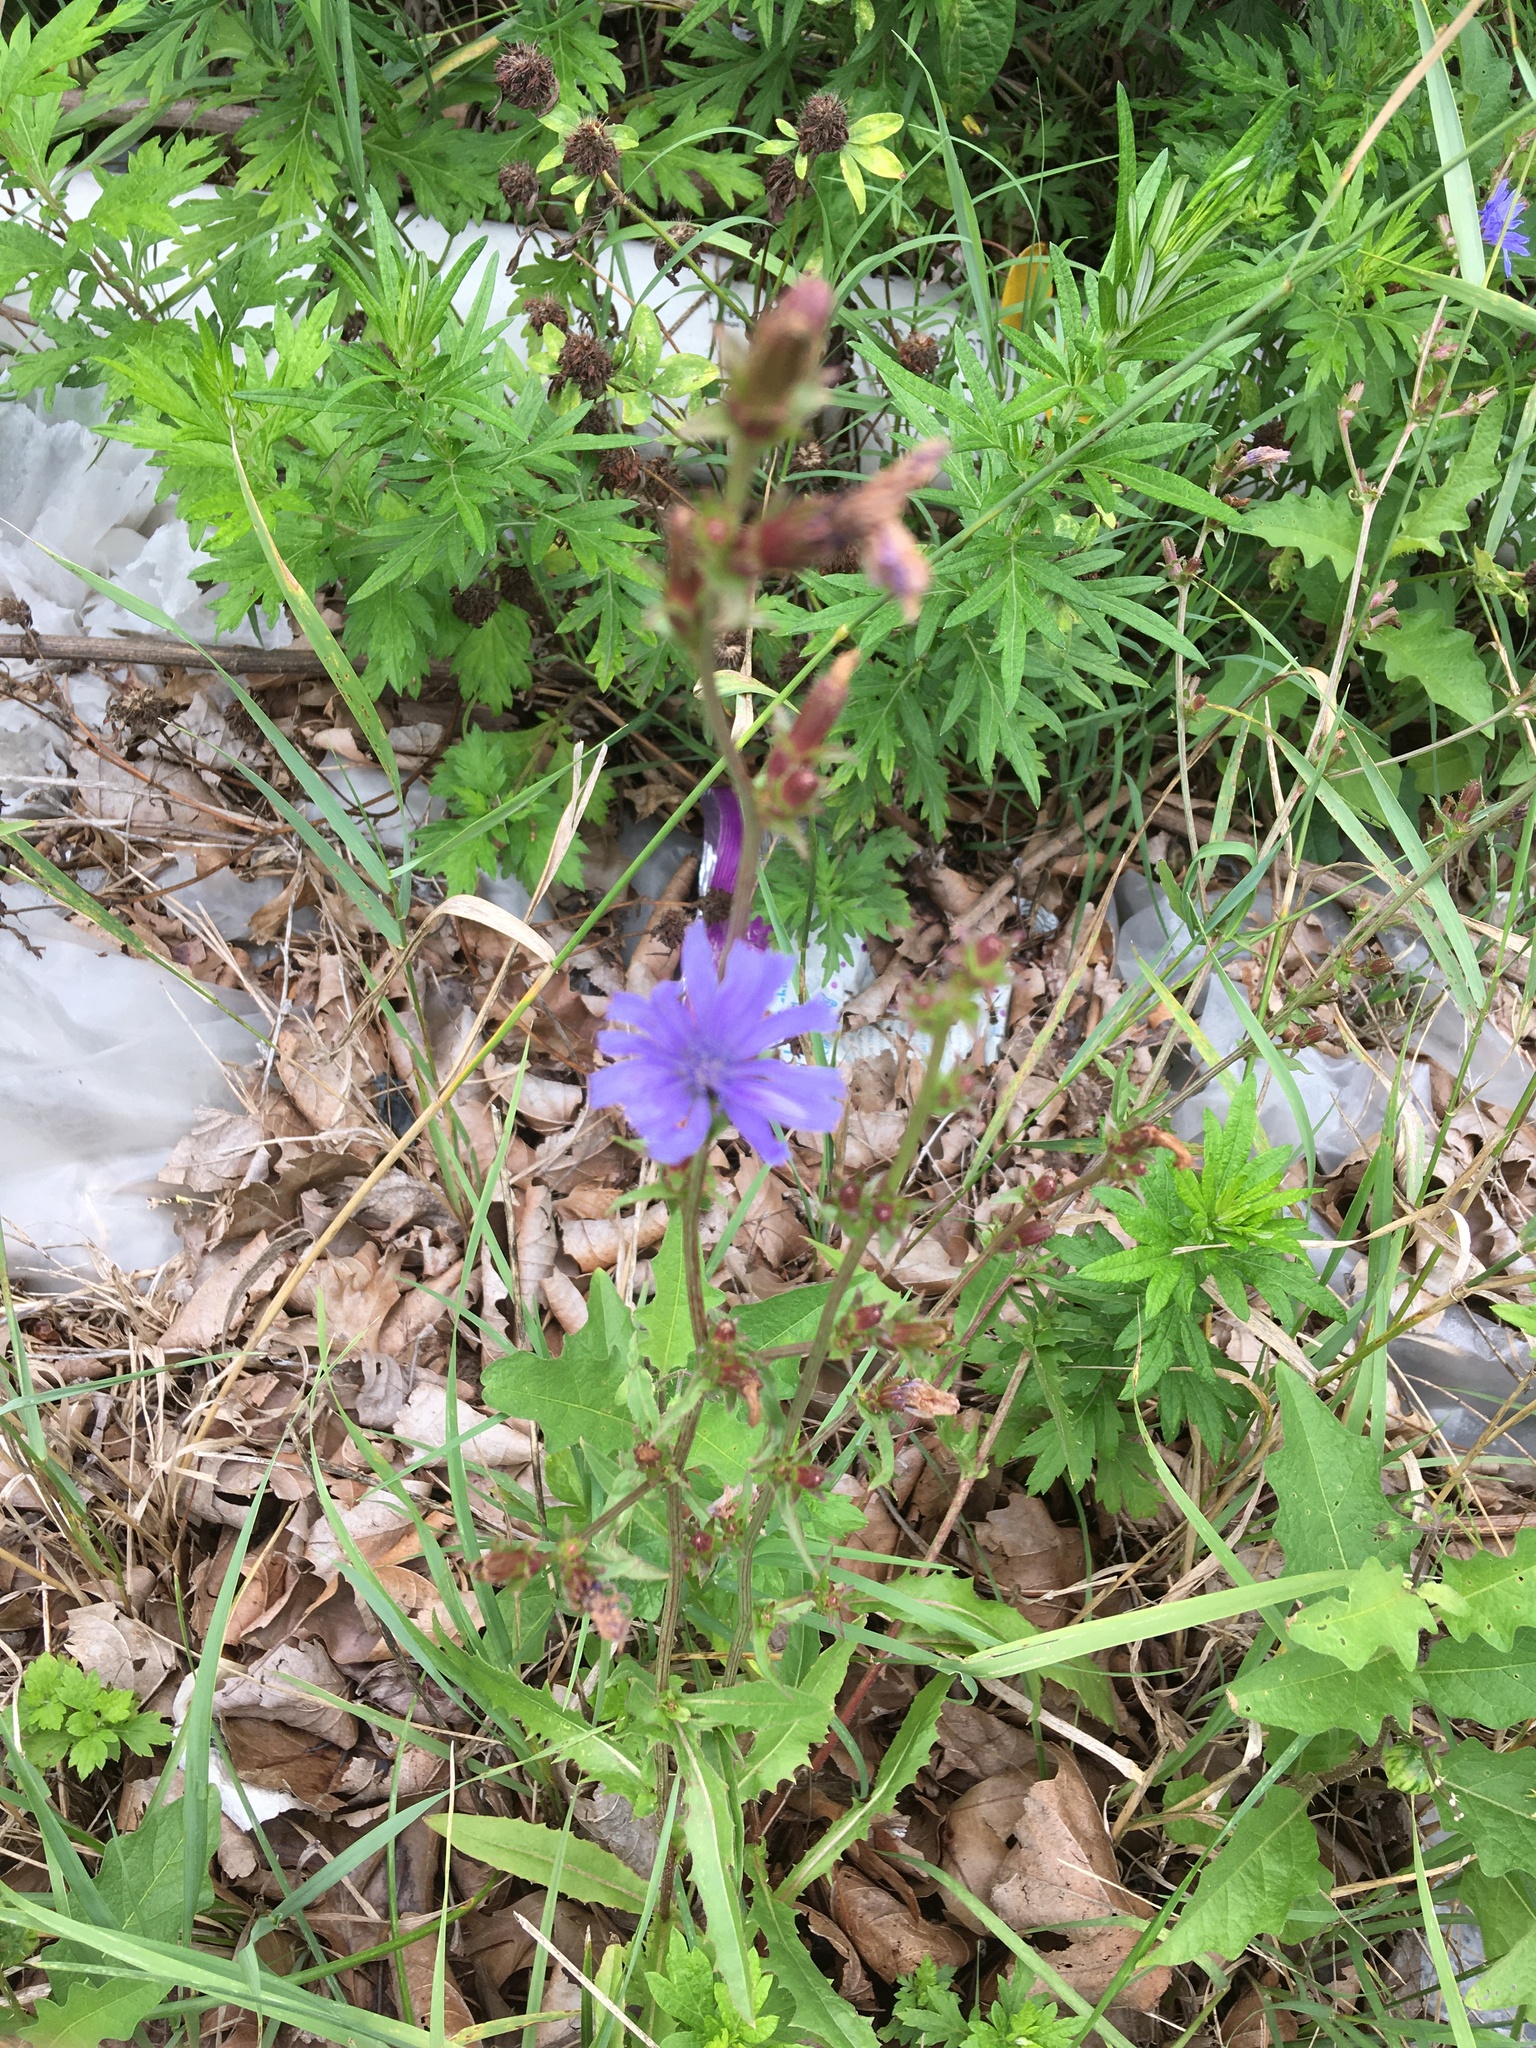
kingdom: Plantae
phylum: Tracheophyta
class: Magnoliopsida
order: Asterales
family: Asteraceae
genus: Cichorium
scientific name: Cichorium intybus
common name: Chicory
